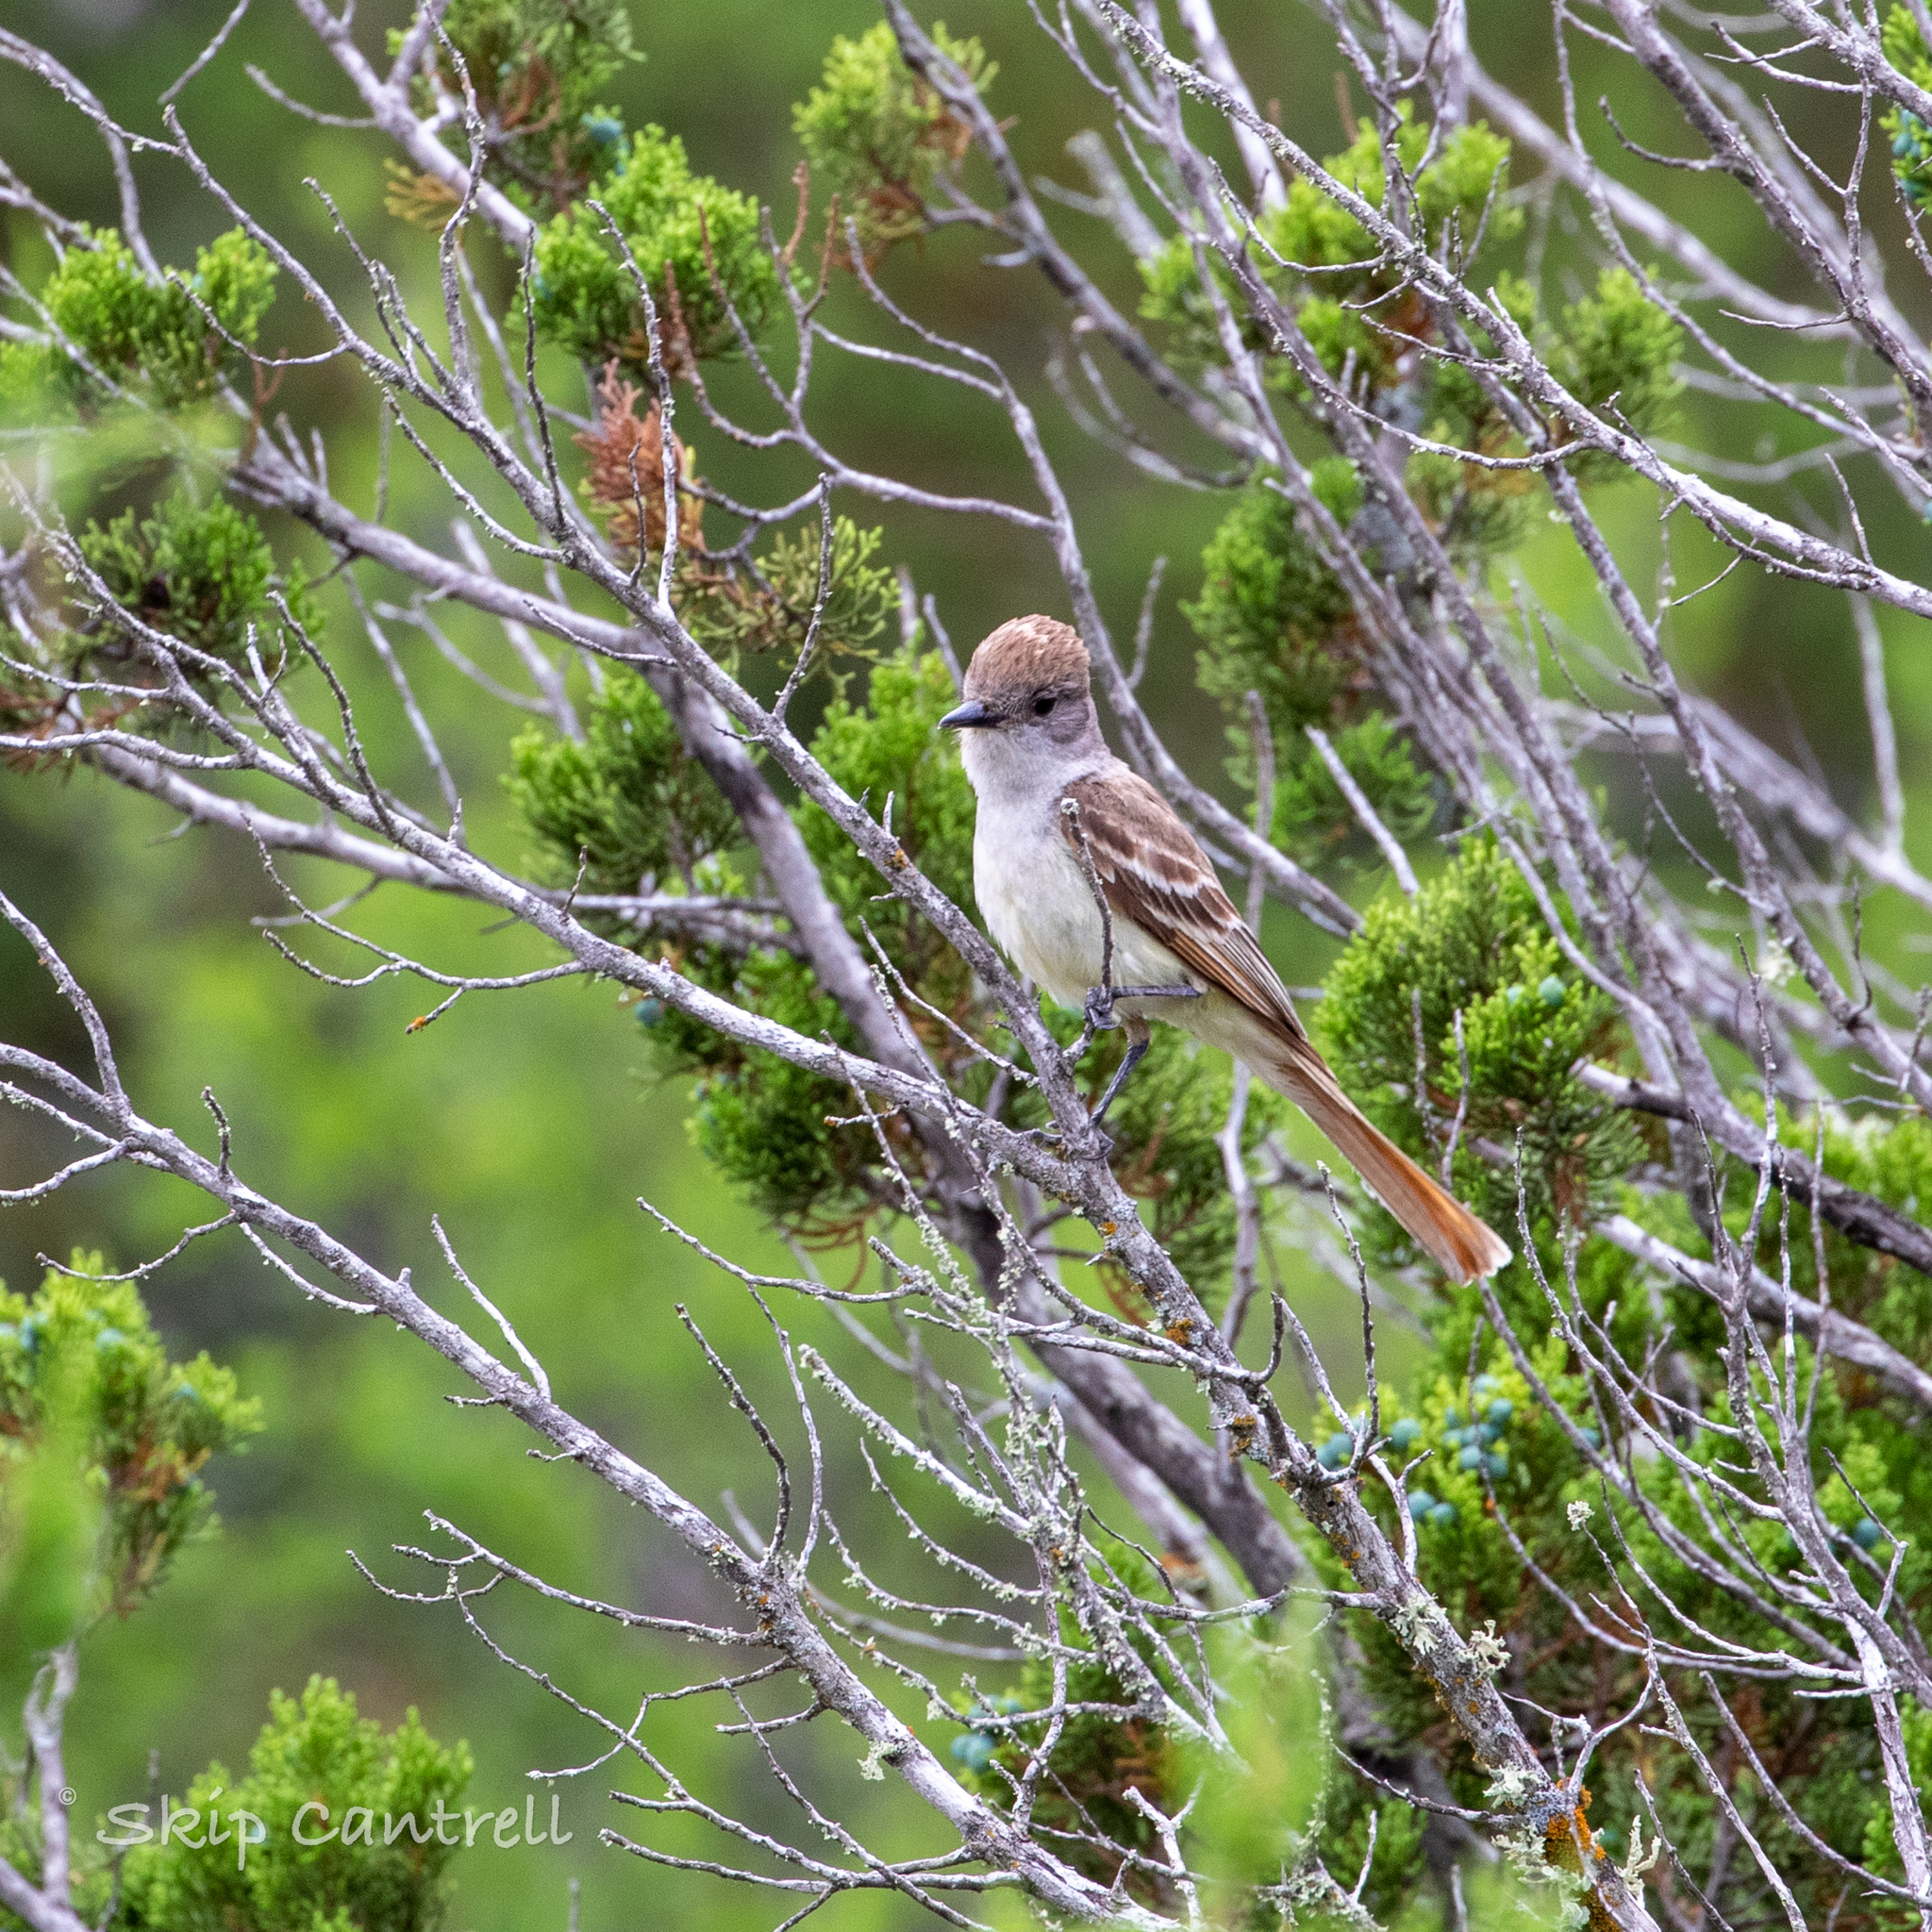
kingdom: Animalia
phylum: Chordata
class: Aves
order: Passeriformes
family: Tyrannidae
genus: Myiarchus
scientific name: Myiarchus cinerascens
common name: Ash-throated flycatcher
